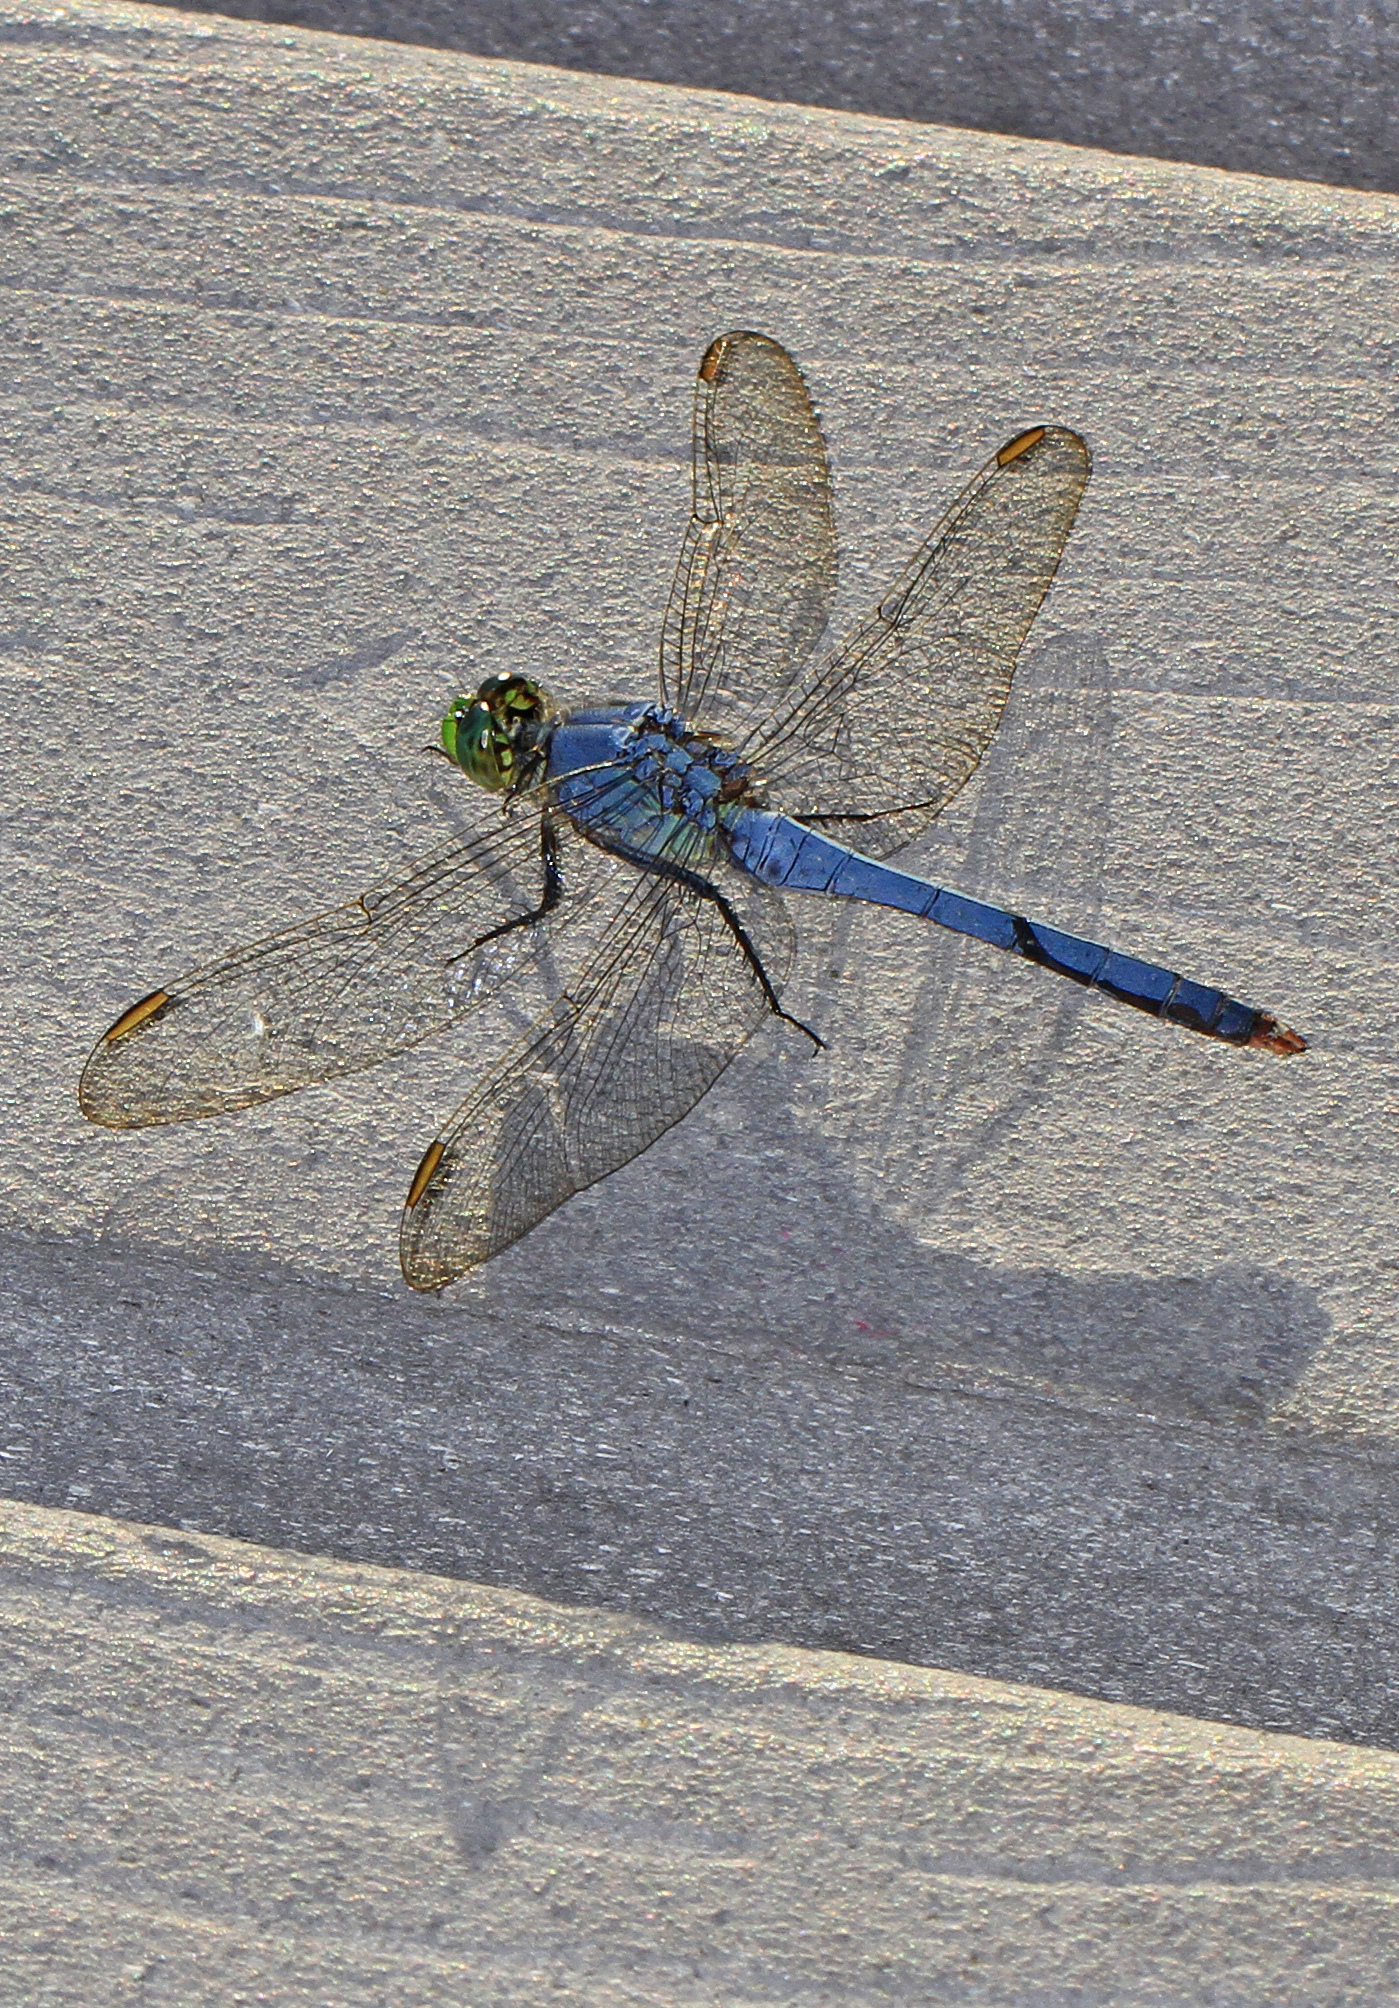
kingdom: Animalia
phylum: Arthropoda
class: Insecta
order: Odonata
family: Libellulidae
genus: Erythemis
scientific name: Erythemis simplicicollis
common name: Eastern pondhawk
